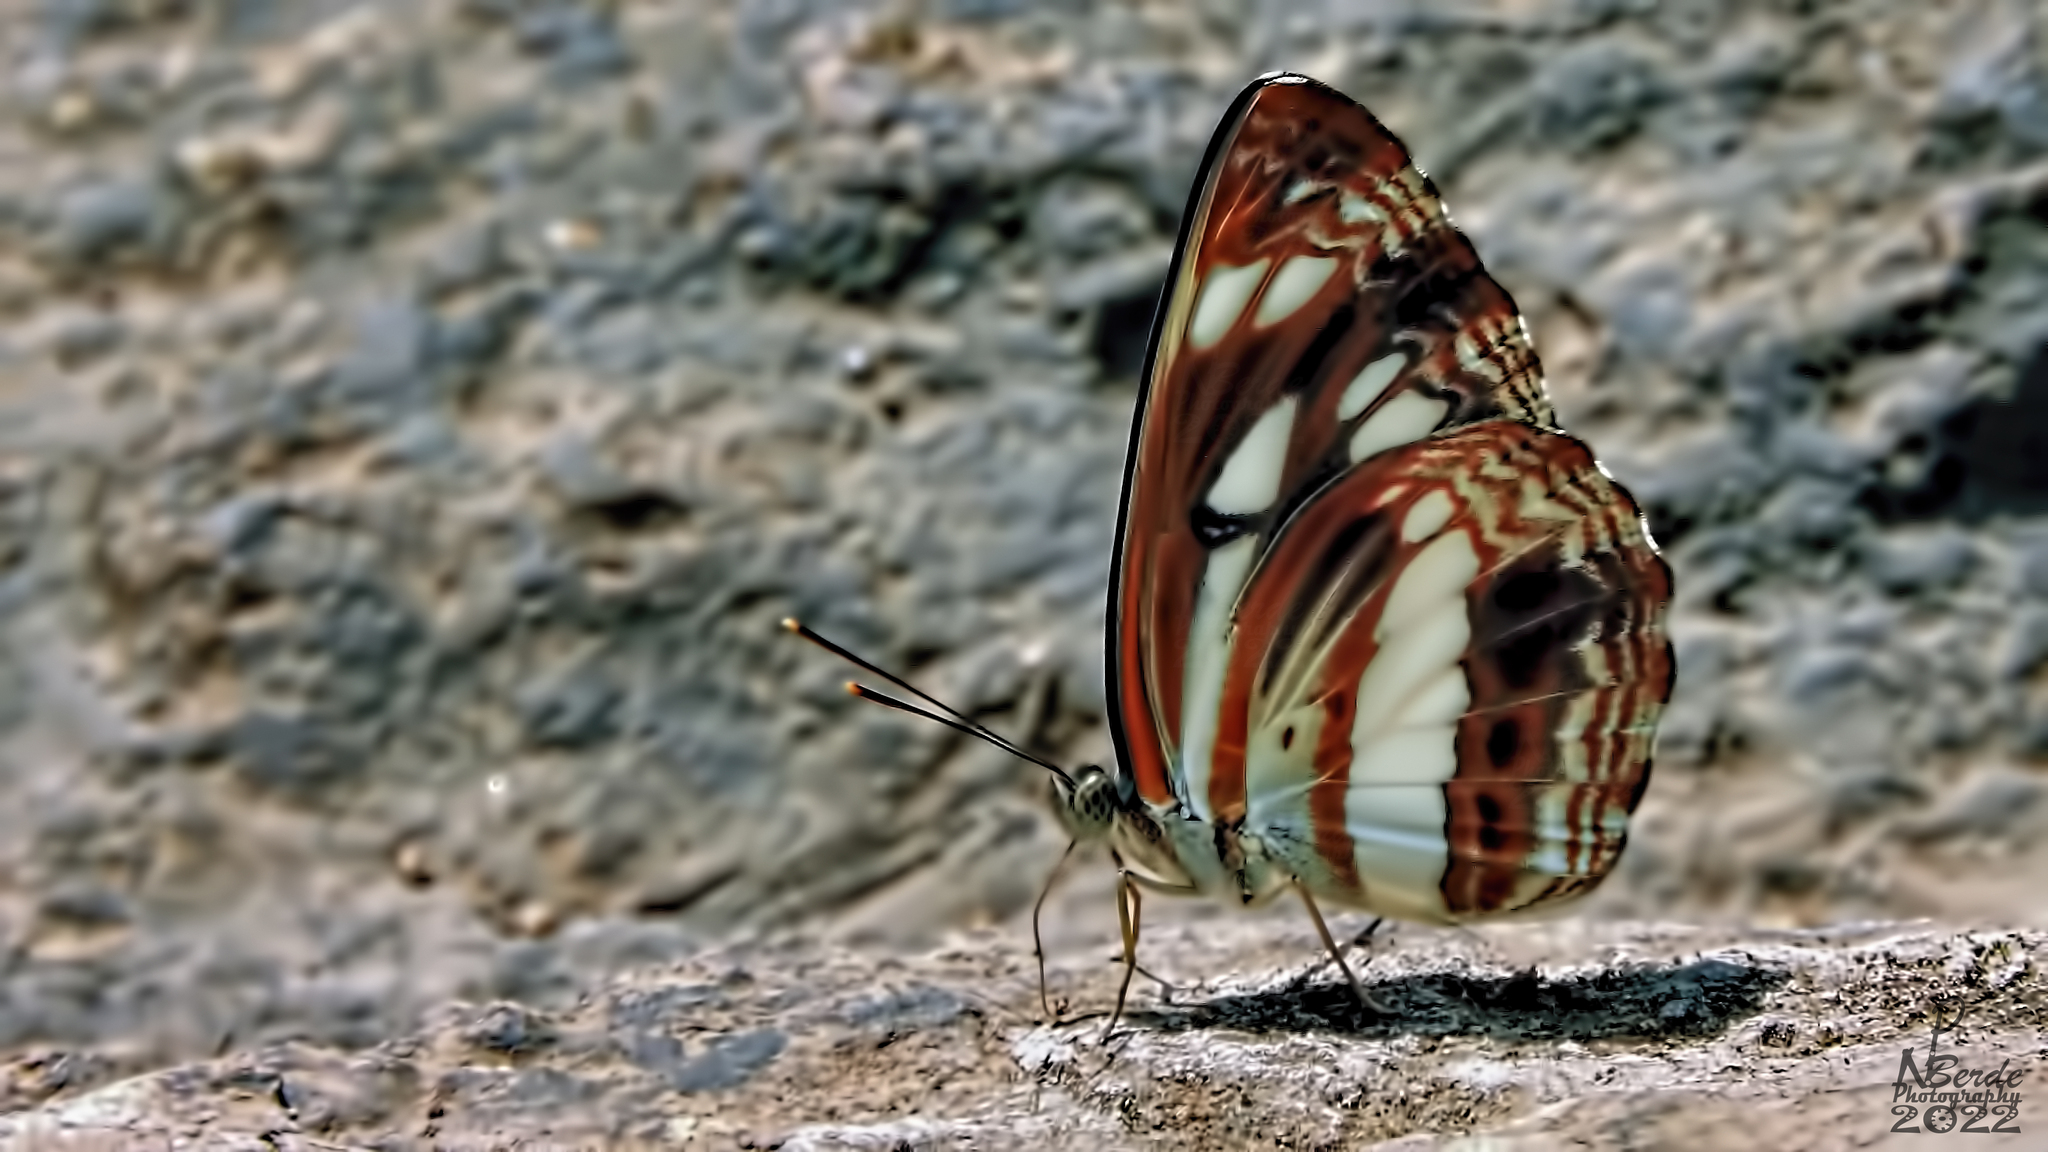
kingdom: Animalia
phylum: Arthropoda
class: Insecta
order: Lepidoptera
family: Nymphalidae
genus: Neptis
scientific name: Neptis jumbah
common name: Chestnut-streaked sailer
